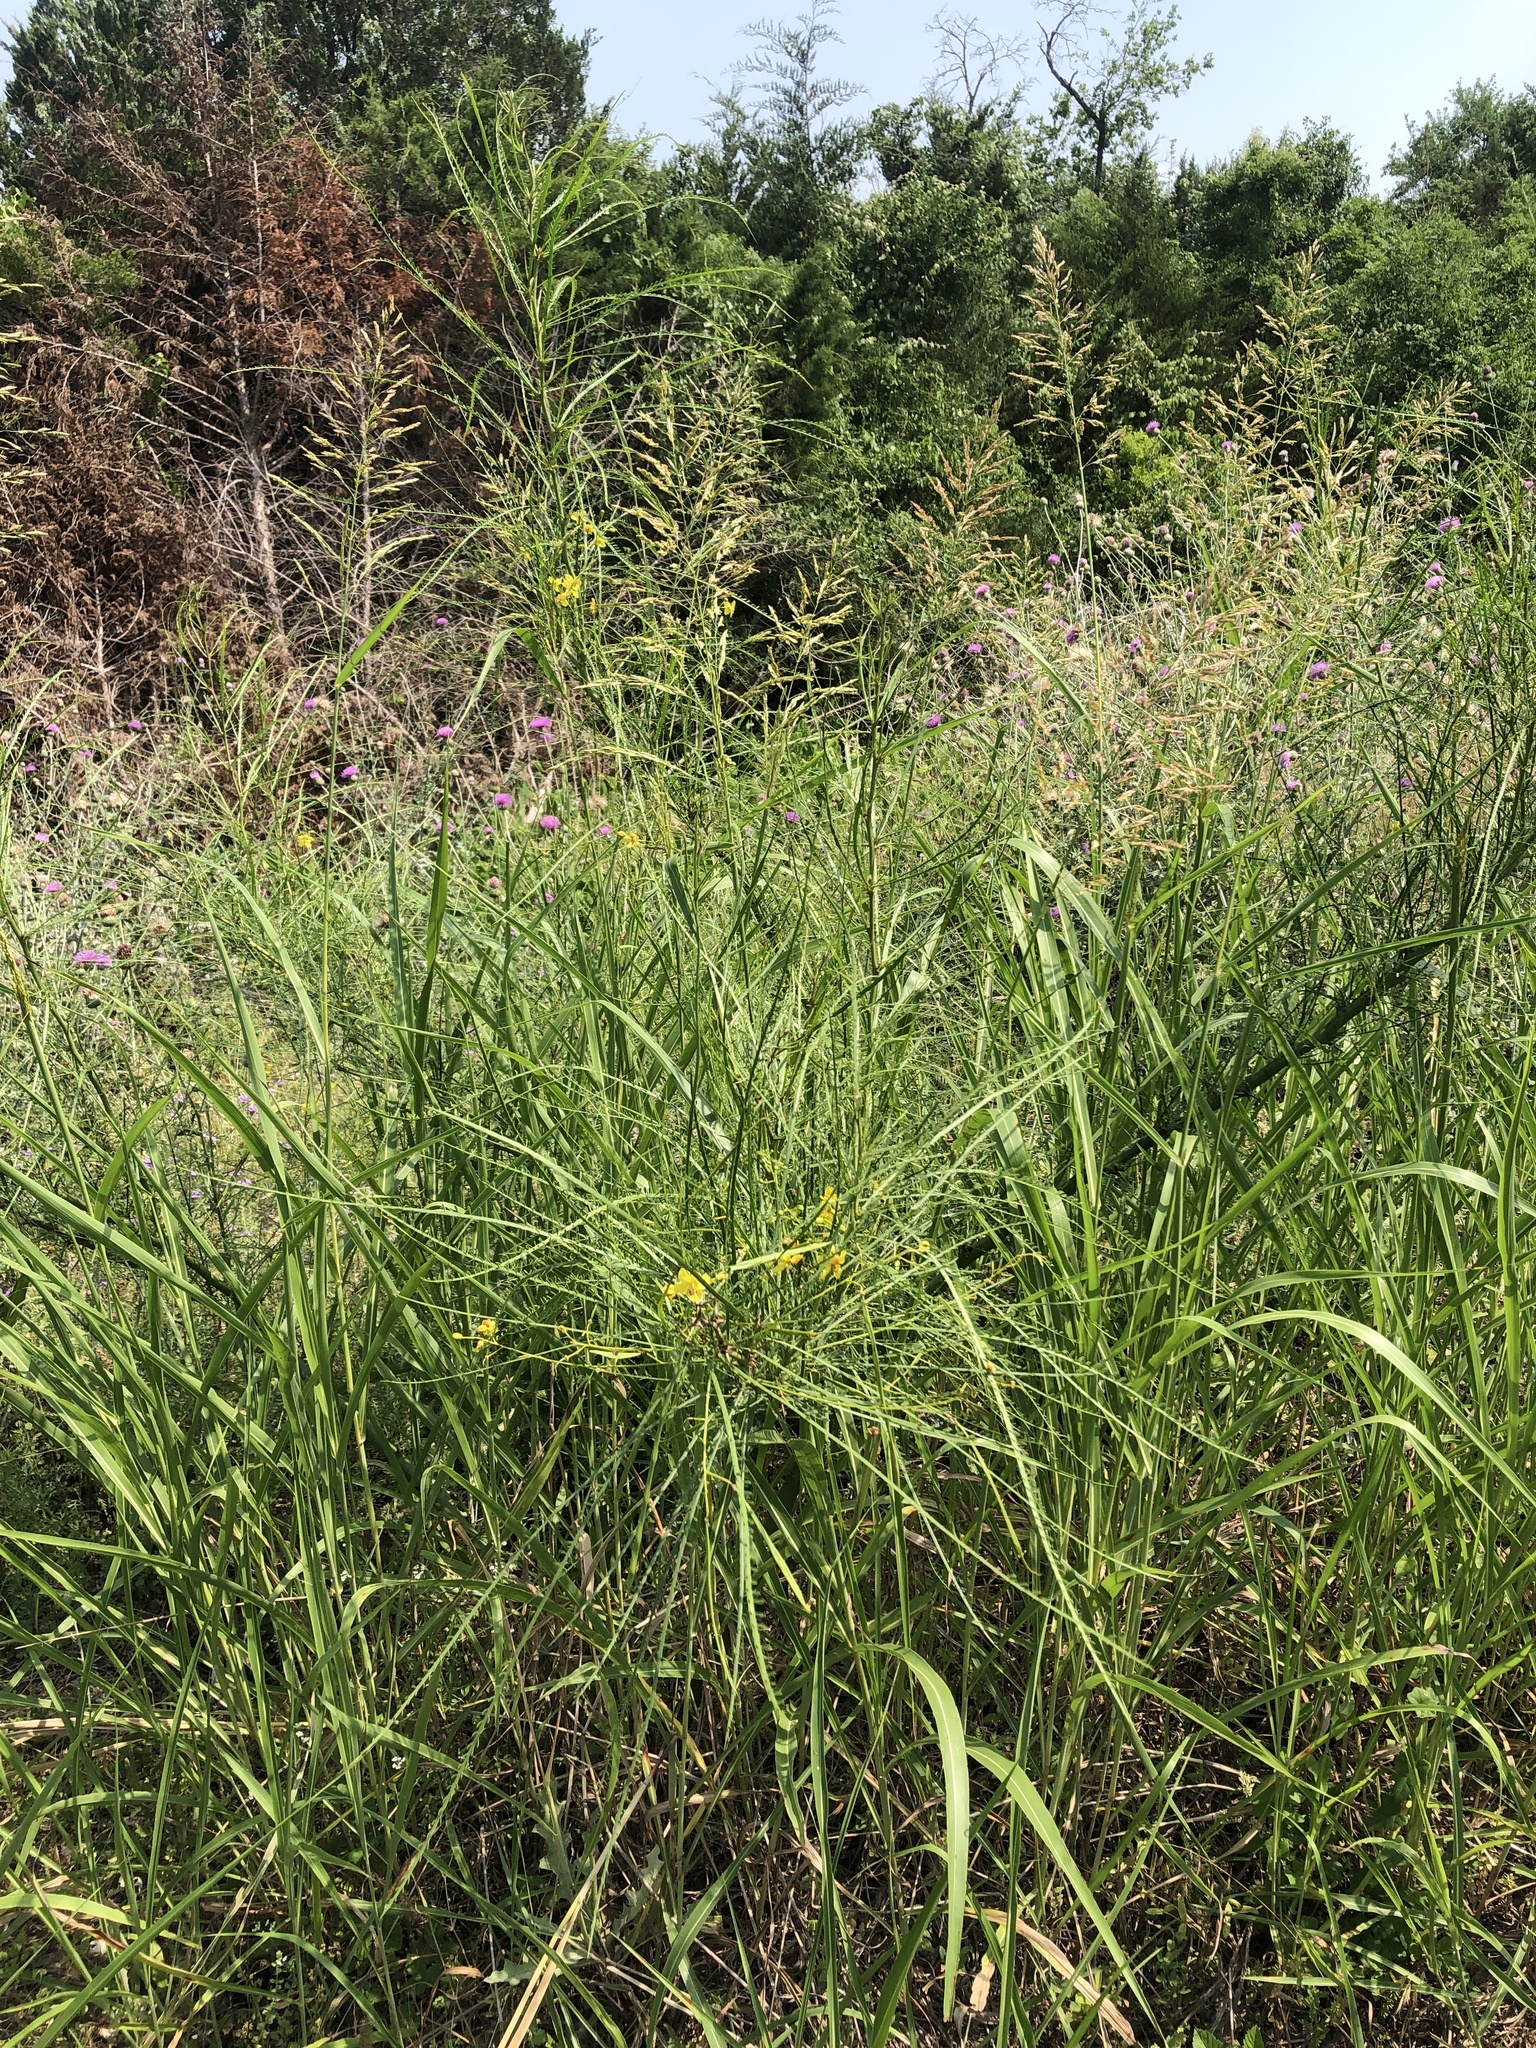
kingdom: Plantae
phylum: Tracheophyta
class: Magnoliopsida
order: Fabales
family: Fabaceae
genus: Parkinsonia
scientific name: Parkinsonia aculeata
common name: Jerusalem thorn
